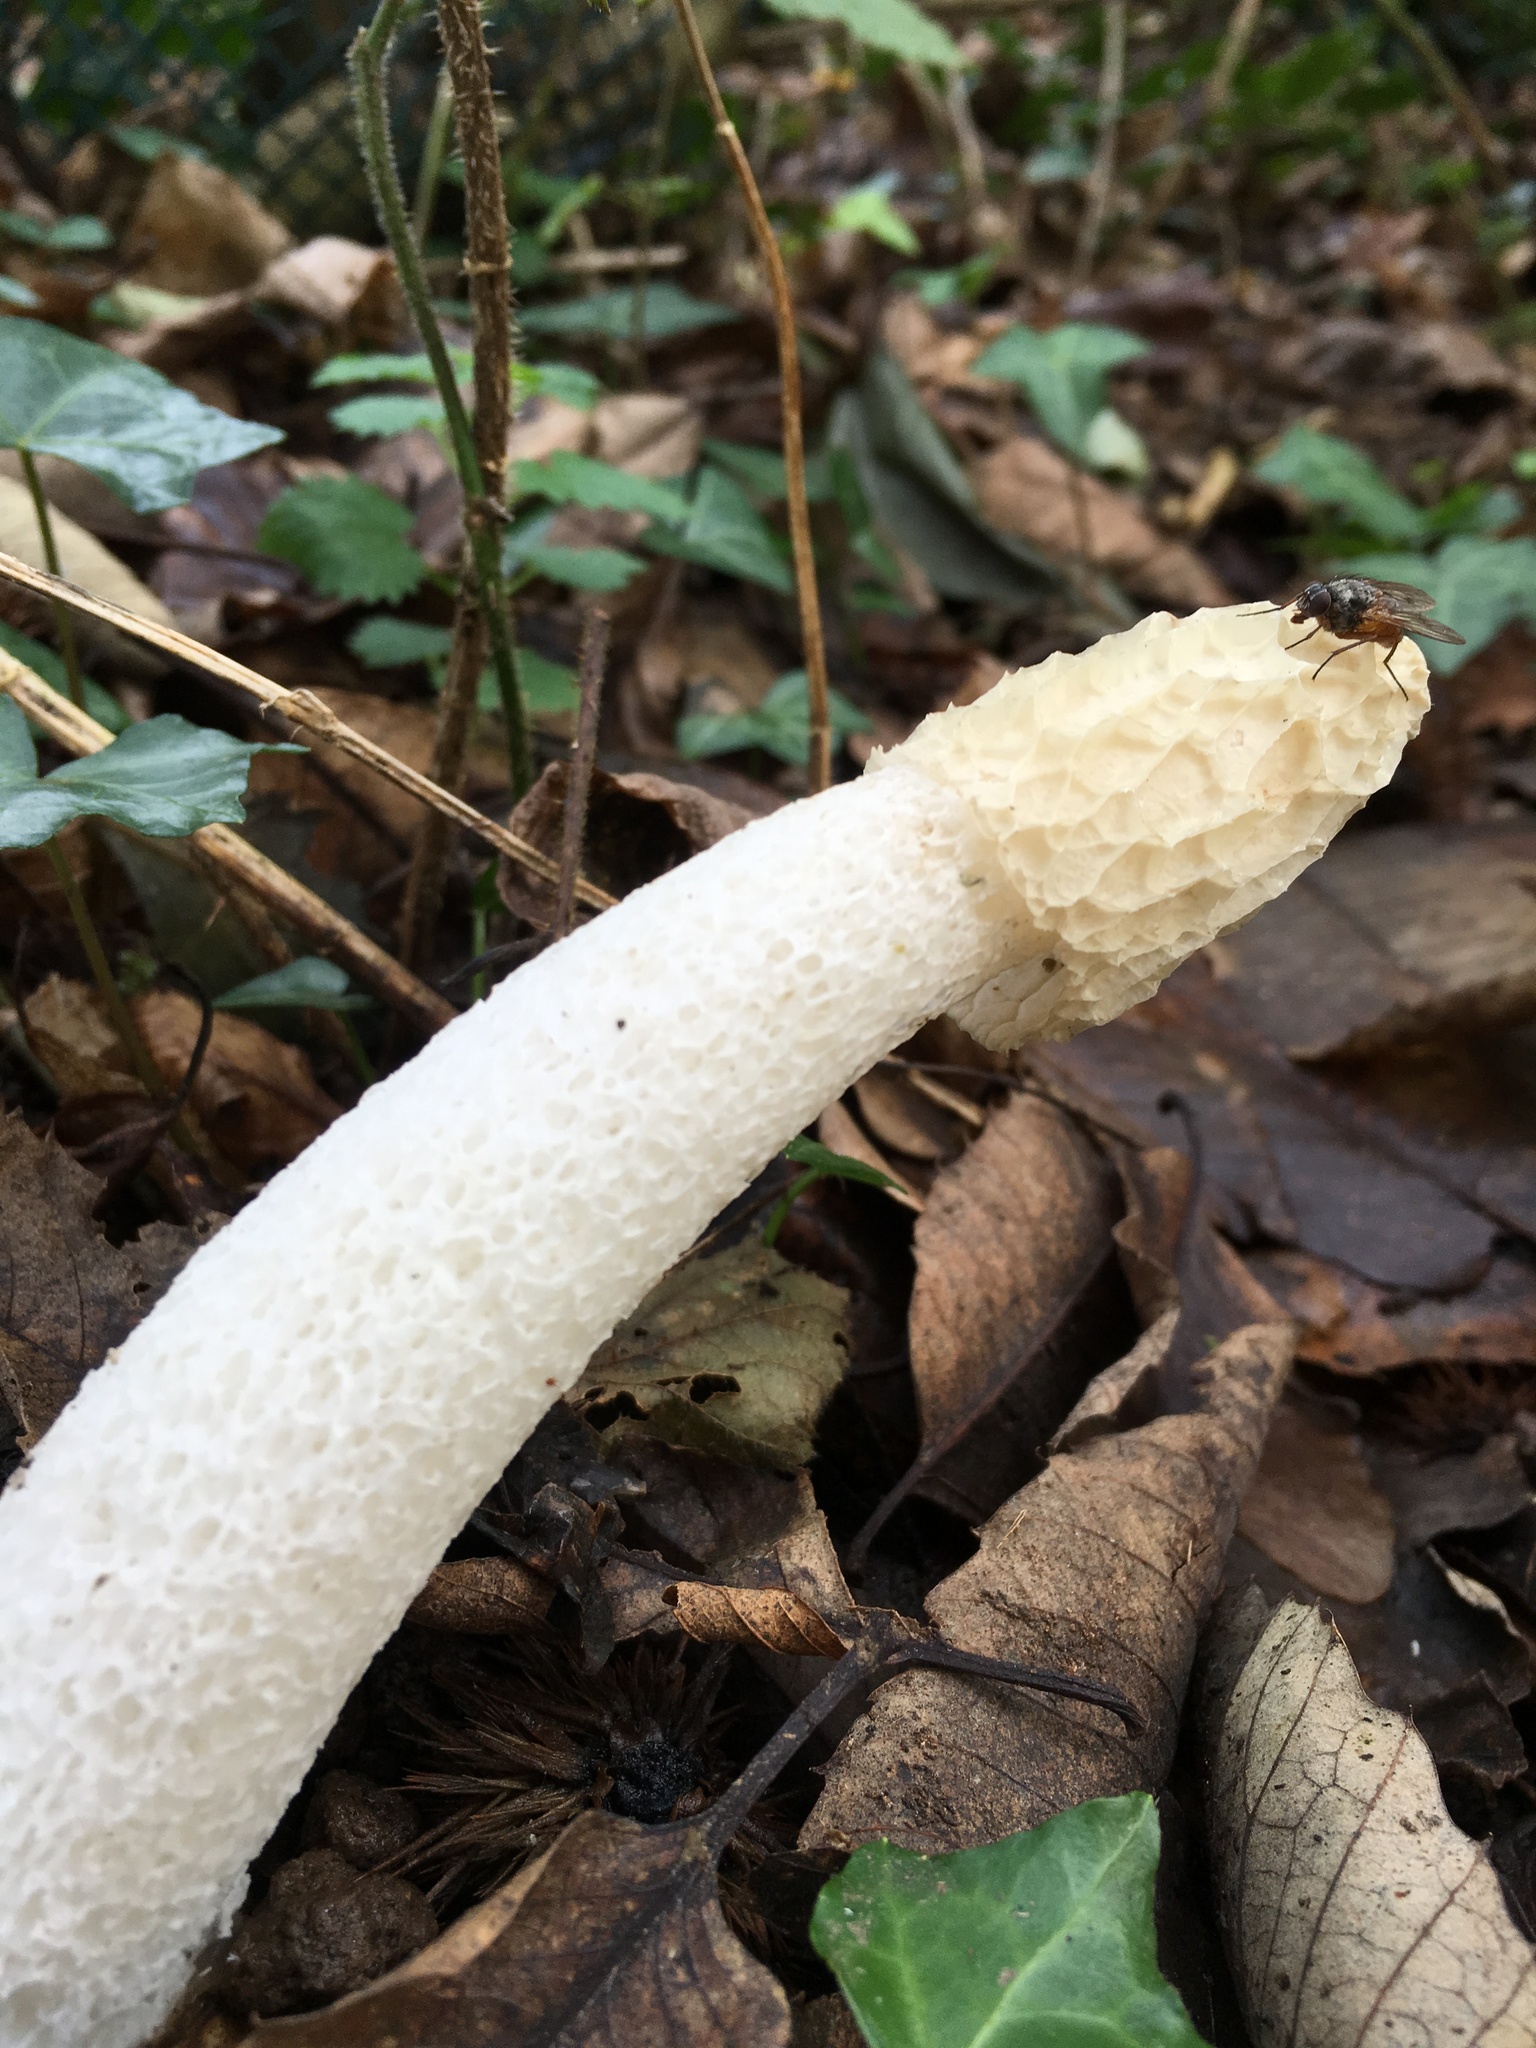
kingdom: Fungi
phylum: Basidiomycota
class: Agaricomycetes
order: Phallales
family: Phallaceae
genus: Phallus
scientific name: Phallus impudicus
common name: Common stinkhorn
